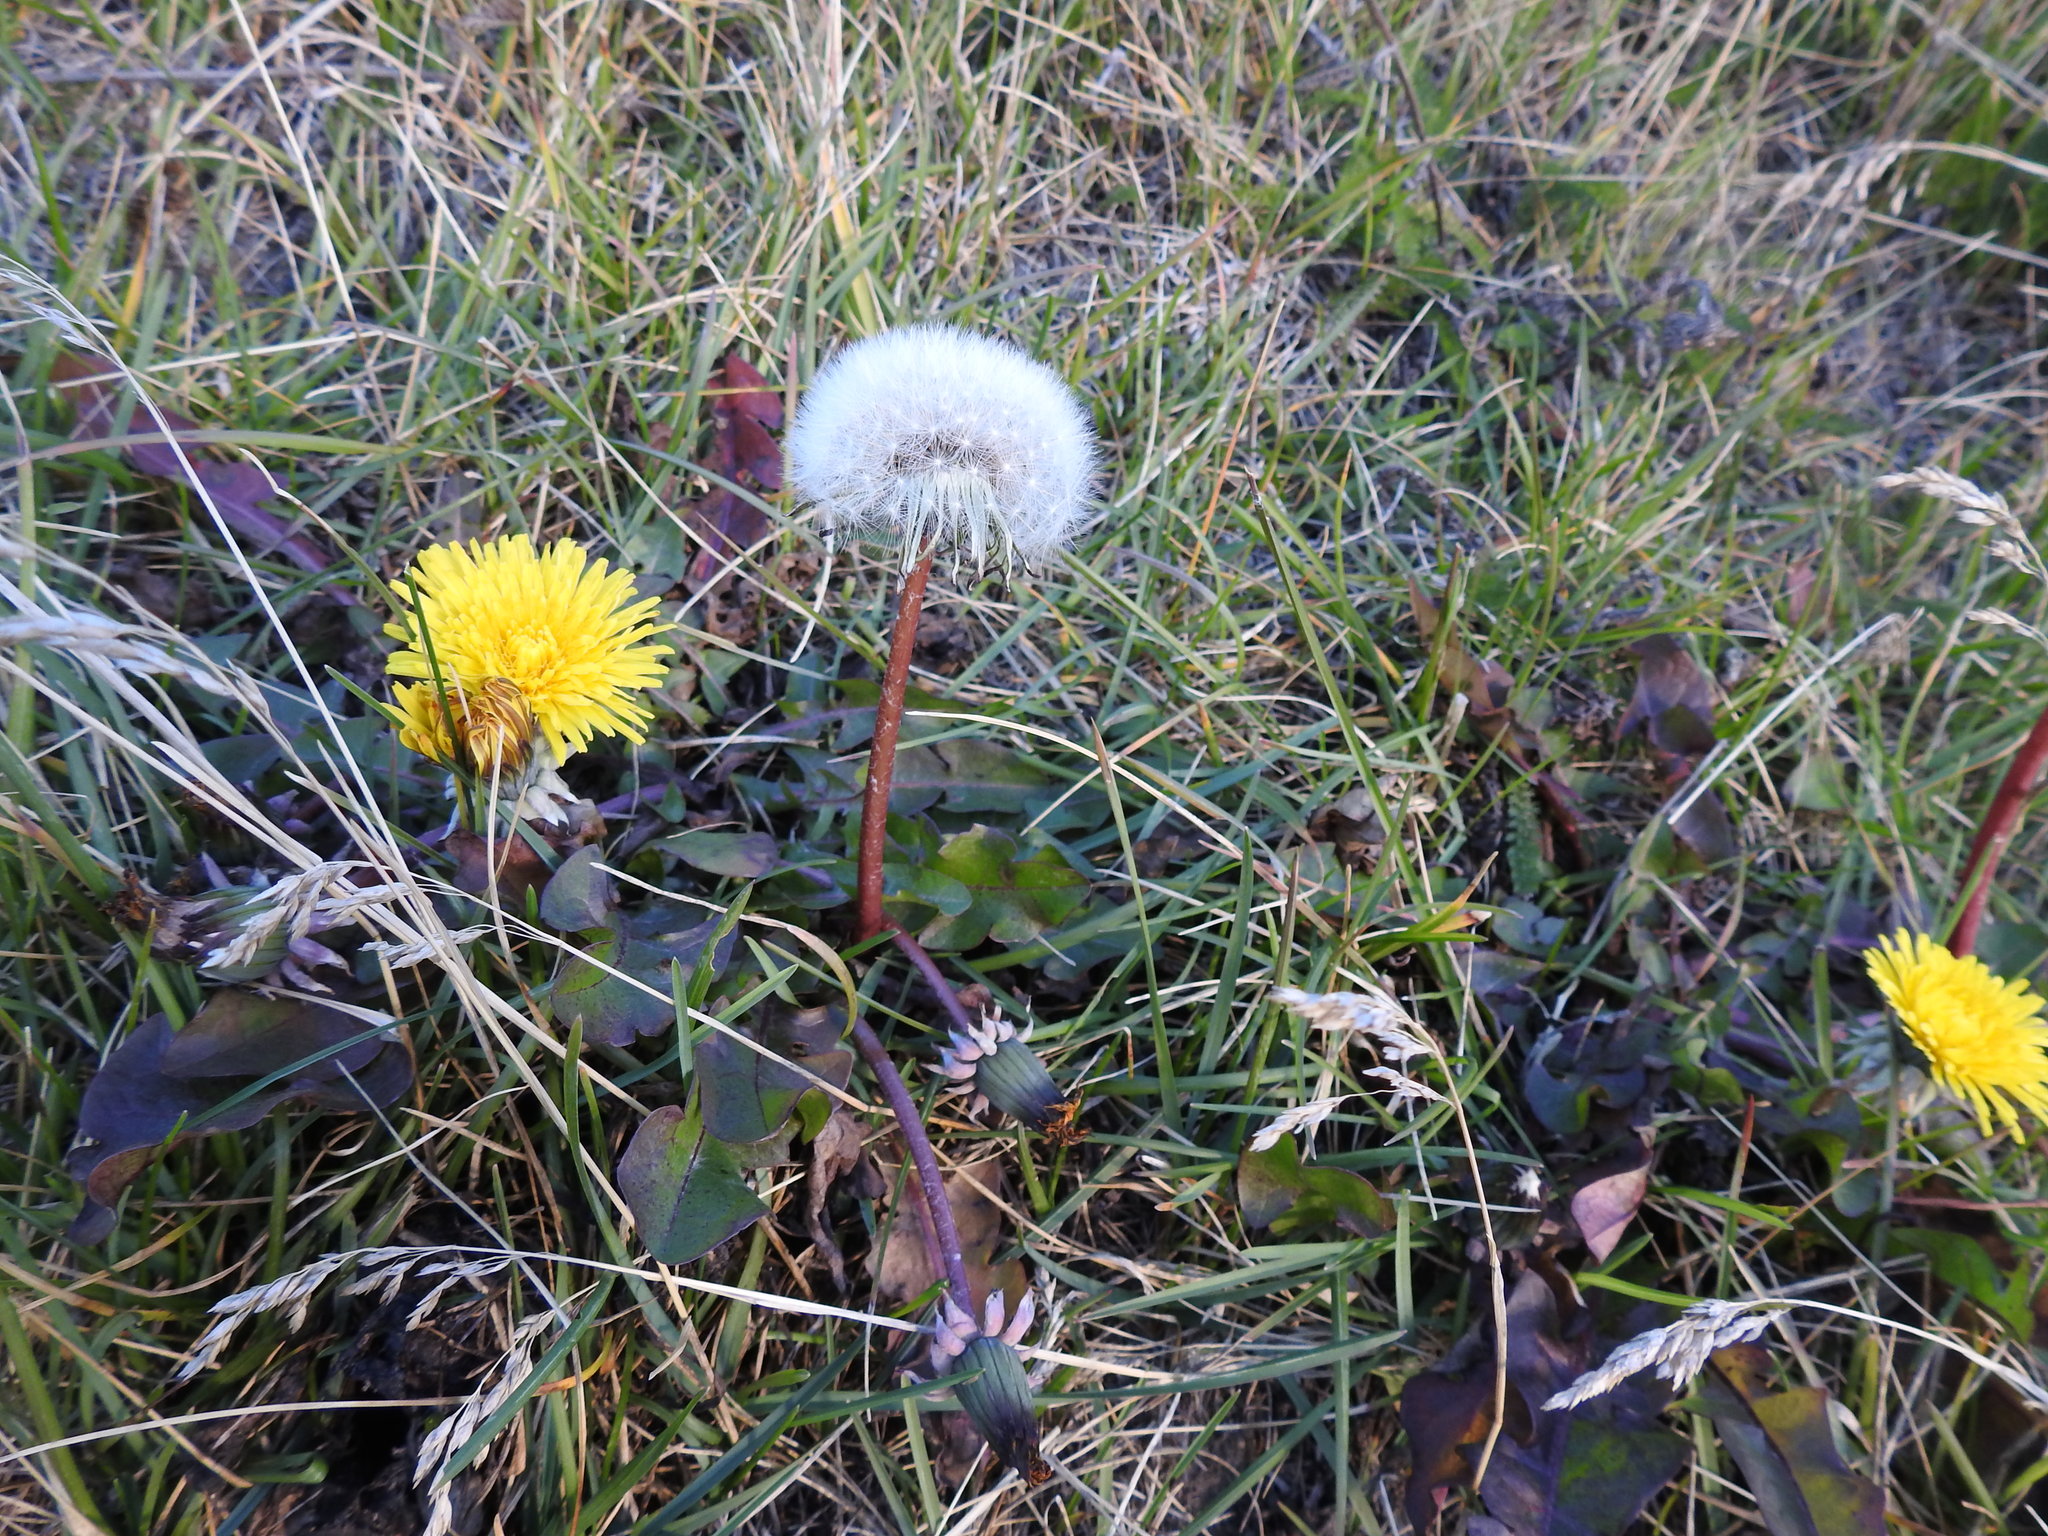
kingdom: Plantae
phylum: Tracheophyta
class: Magnoliopsida
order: Asterales
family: Asteraceae
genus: Taraxacum
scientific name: Taraxacum officinale
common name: Common dandelion
